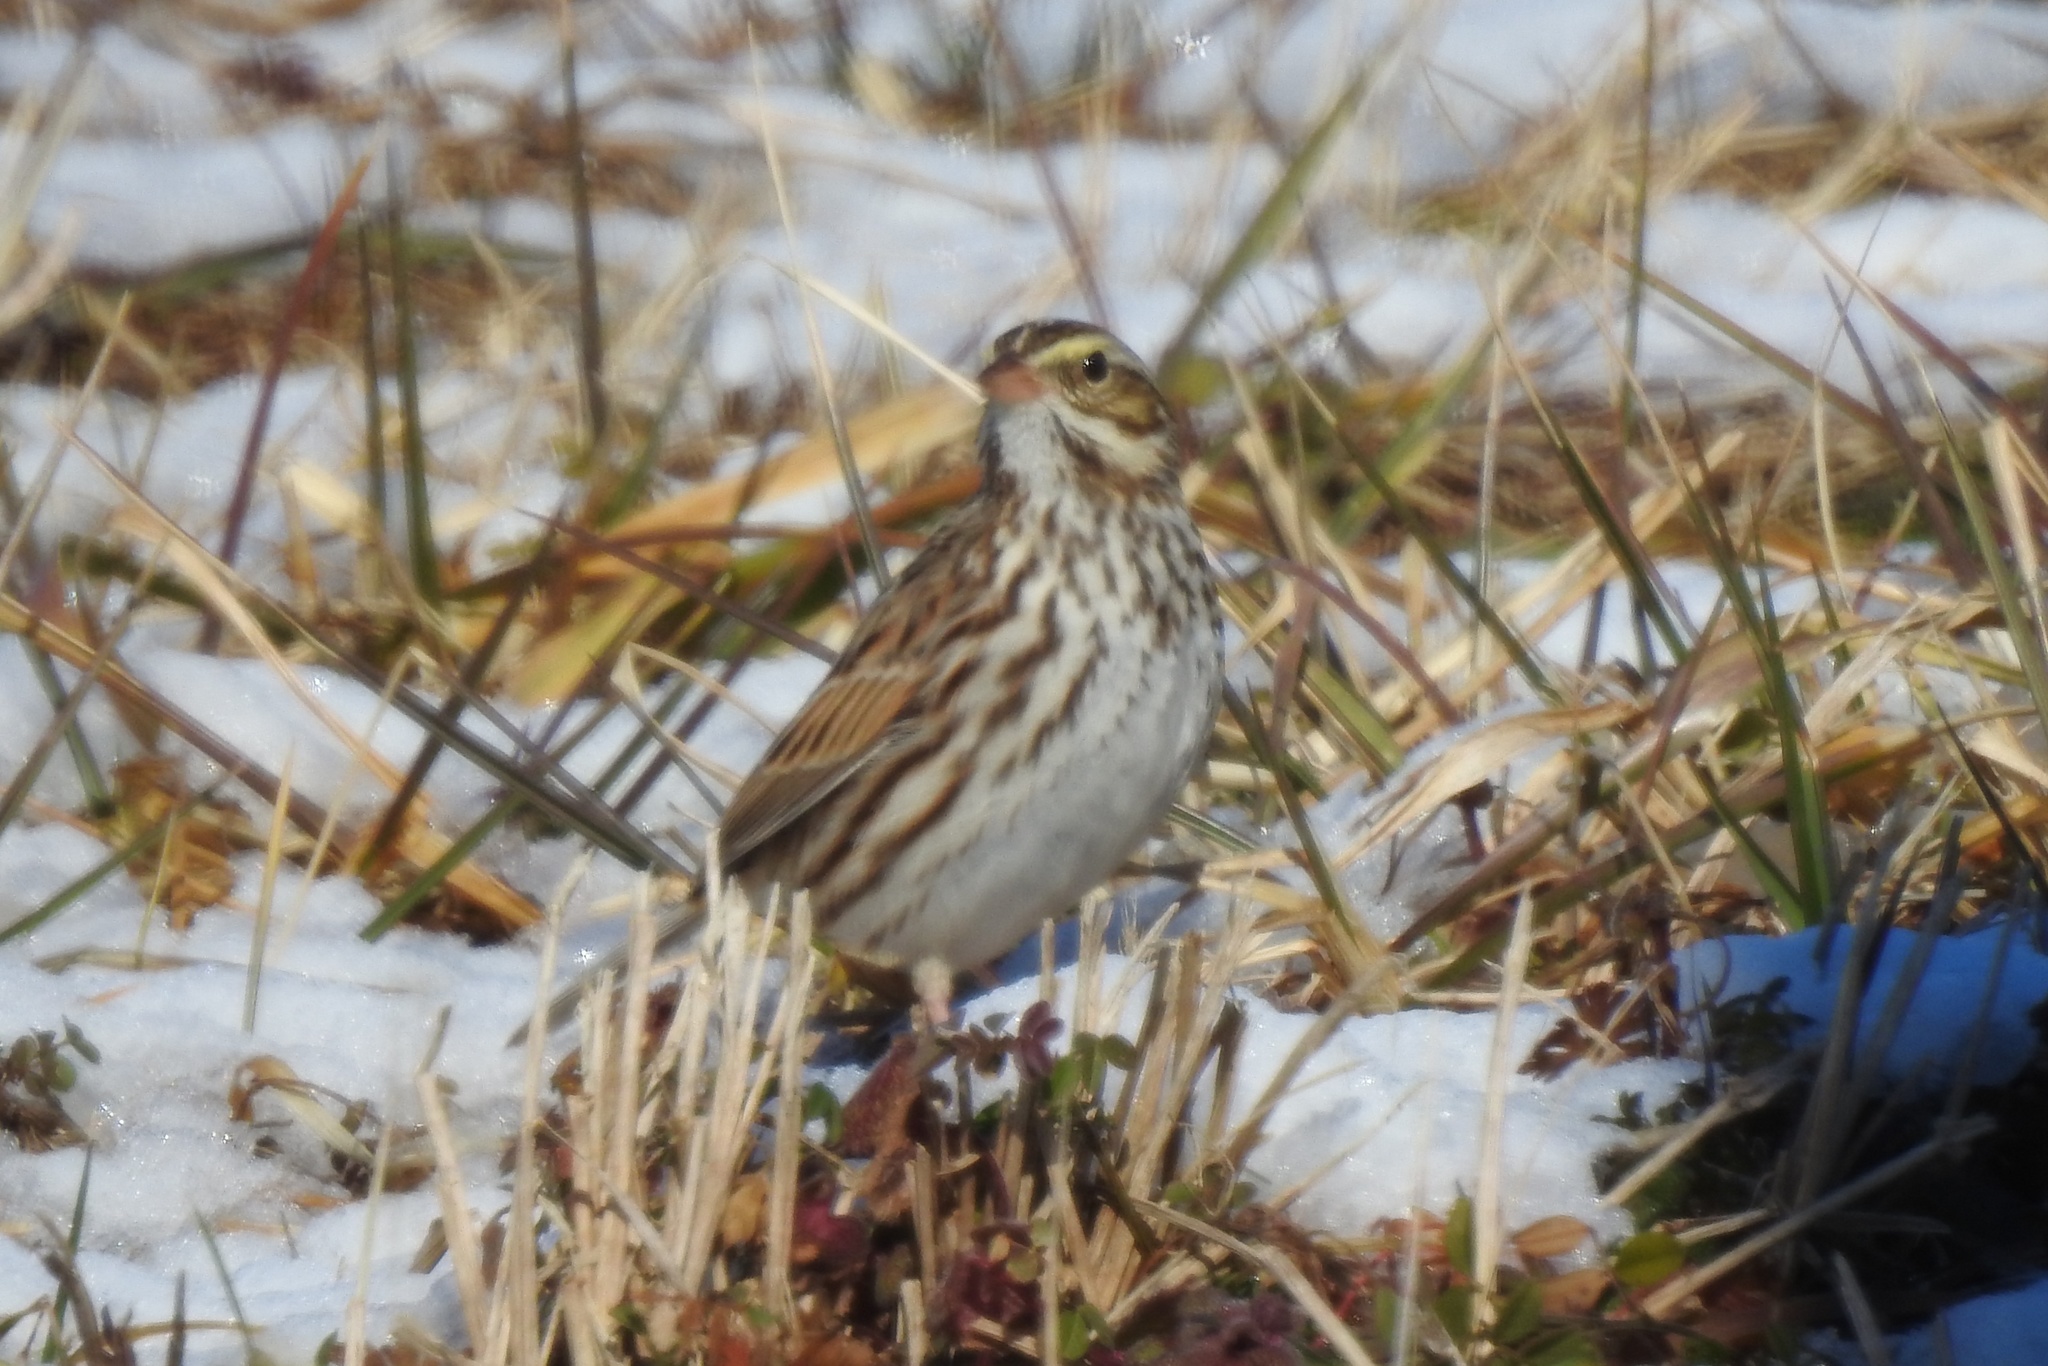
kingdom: Animalia
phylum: Chordata
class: Aves
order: Passeriformes
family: Passerellidae
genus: Passerculus
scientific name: Passerculus sandwichensis
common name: Savannah sparrow
